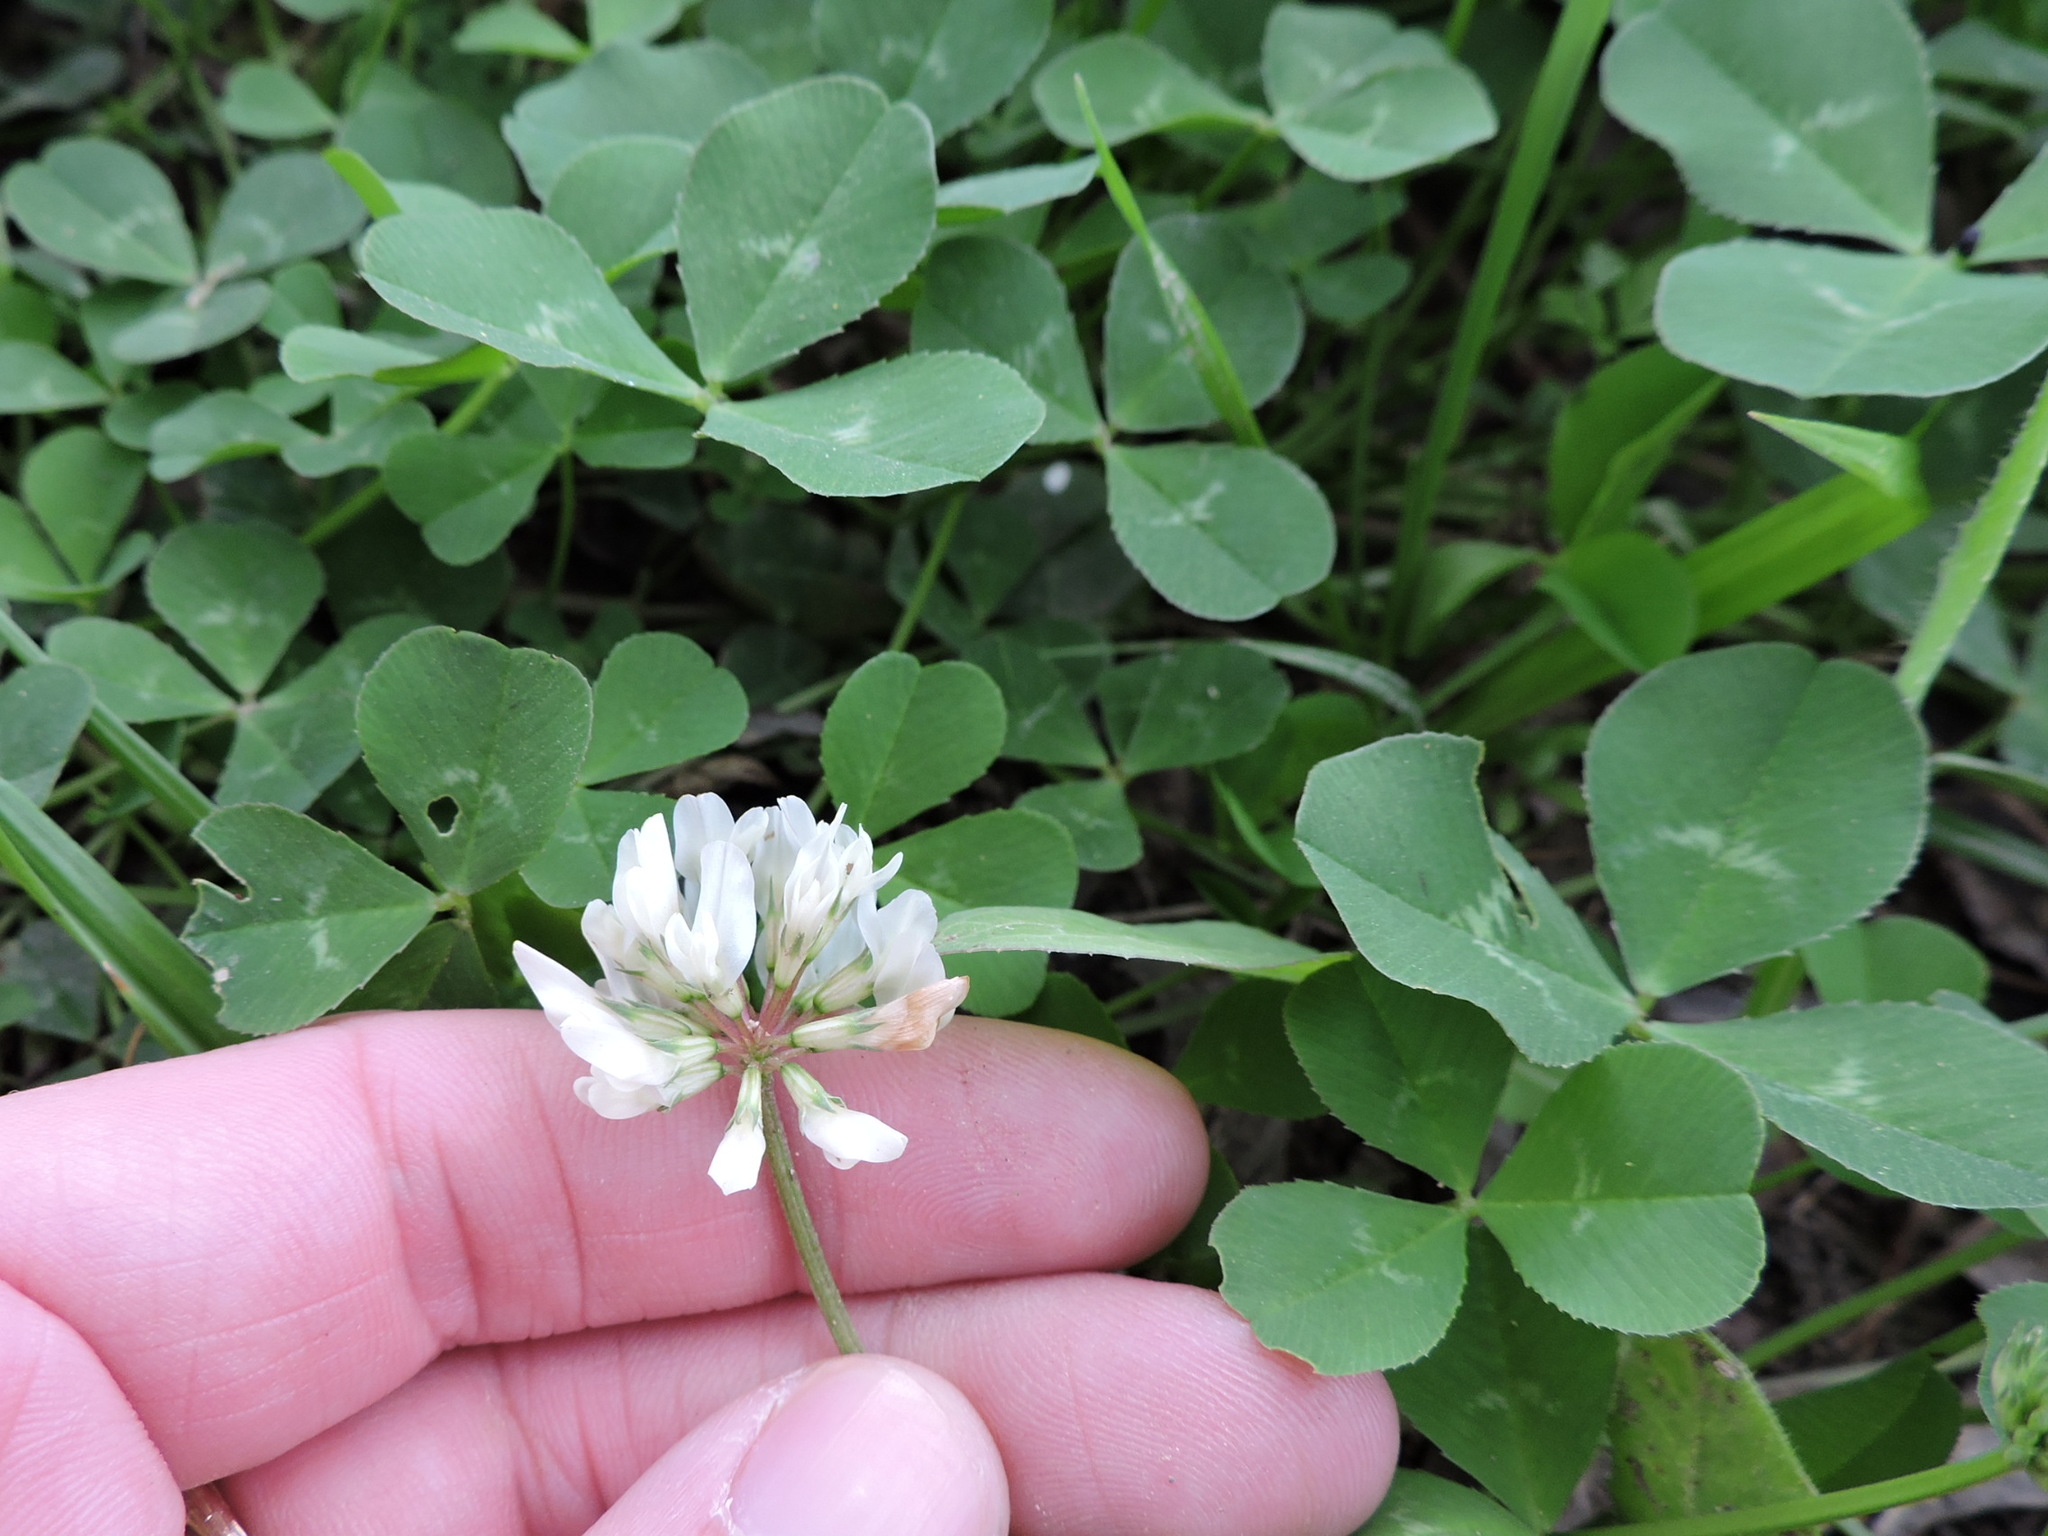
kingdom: Plantae
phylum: Tracheophyta
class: Magnoliopsida
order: Fabales
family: Fabaceae
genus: Trifolium
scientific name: Trifolium repens
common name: White clover
